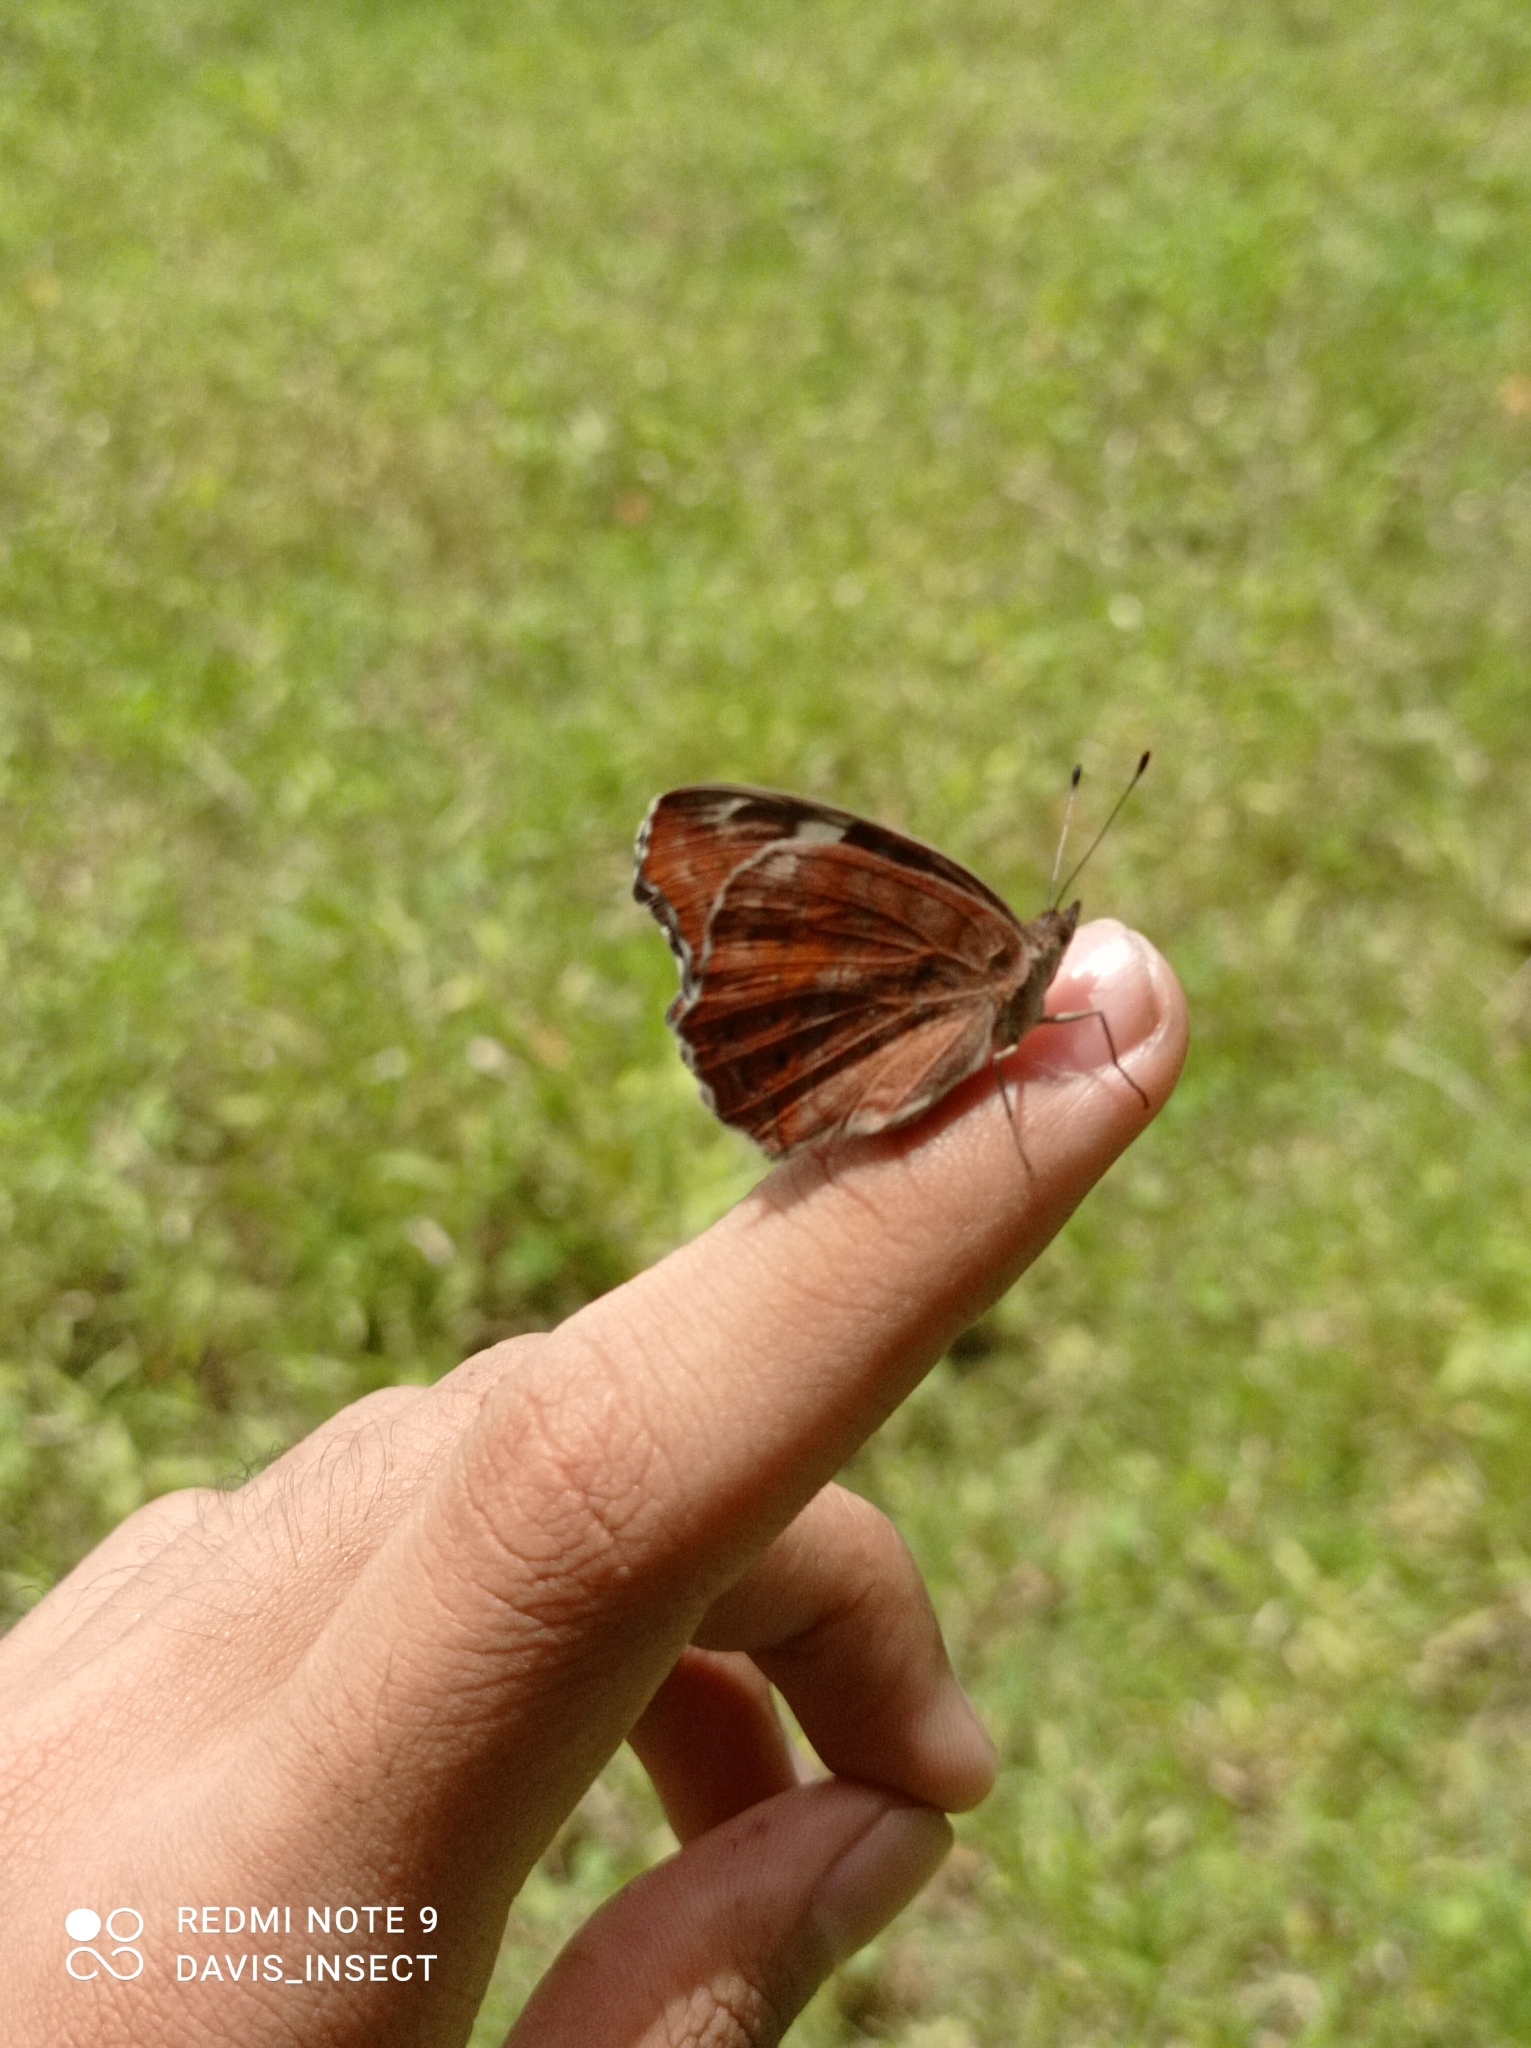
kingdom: Animalia
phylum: Arthropoda
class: Insecta
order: Lepidoptera
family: Nymphalidae
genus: Junonia
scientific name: Junonia erigone
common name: Northern argus
